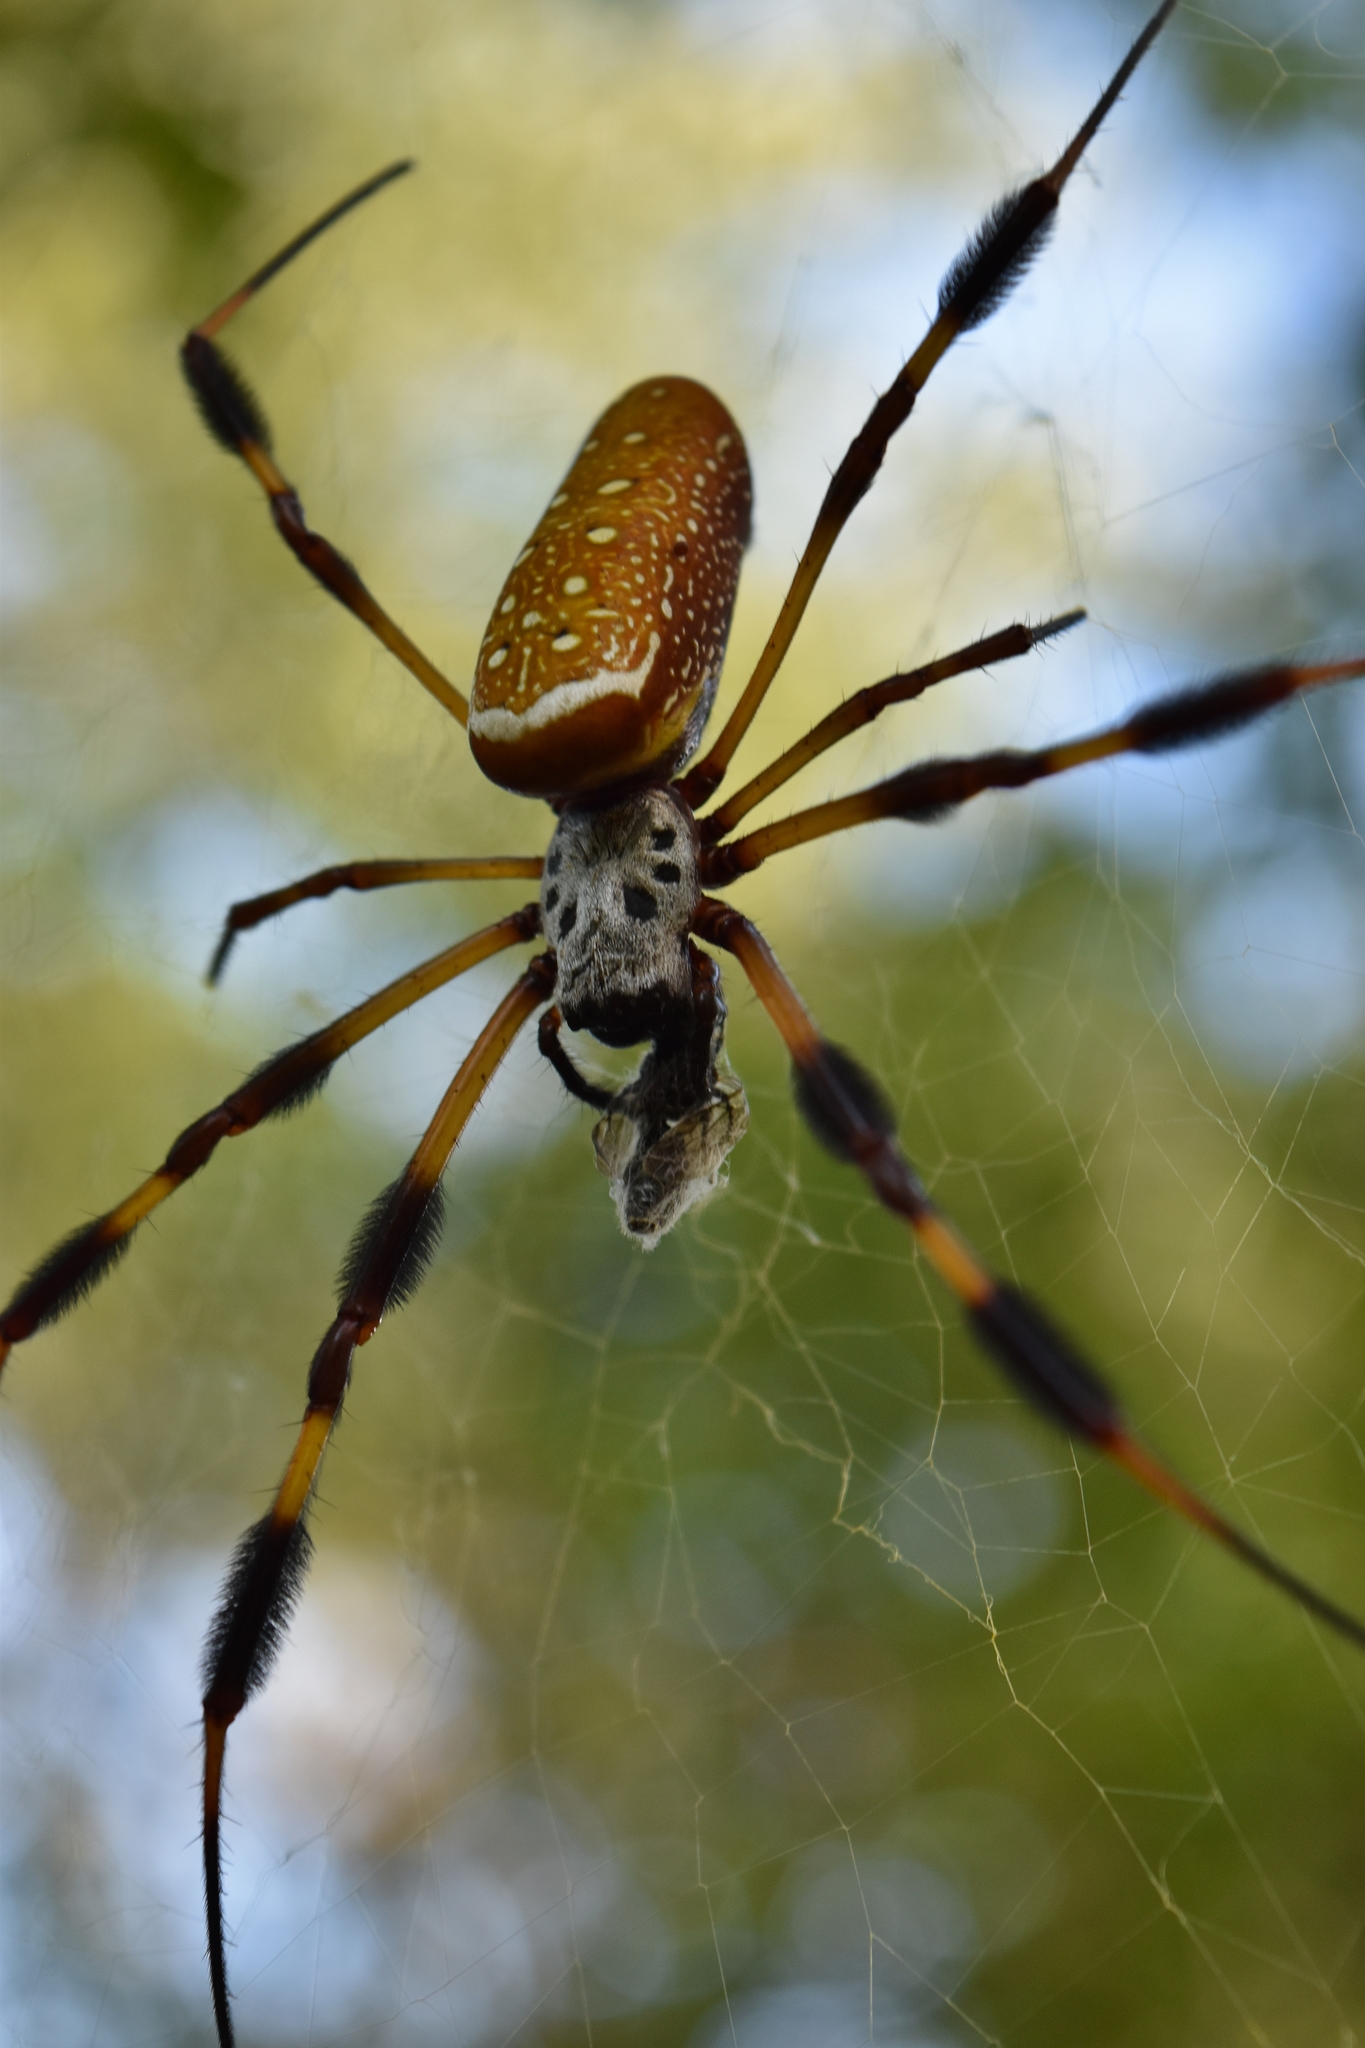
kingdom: Animalia
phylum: Arthropoda
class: Arachnida
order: Araneae
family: Araneidae
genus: Trichonephila
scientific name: Trichonephila clavipes
